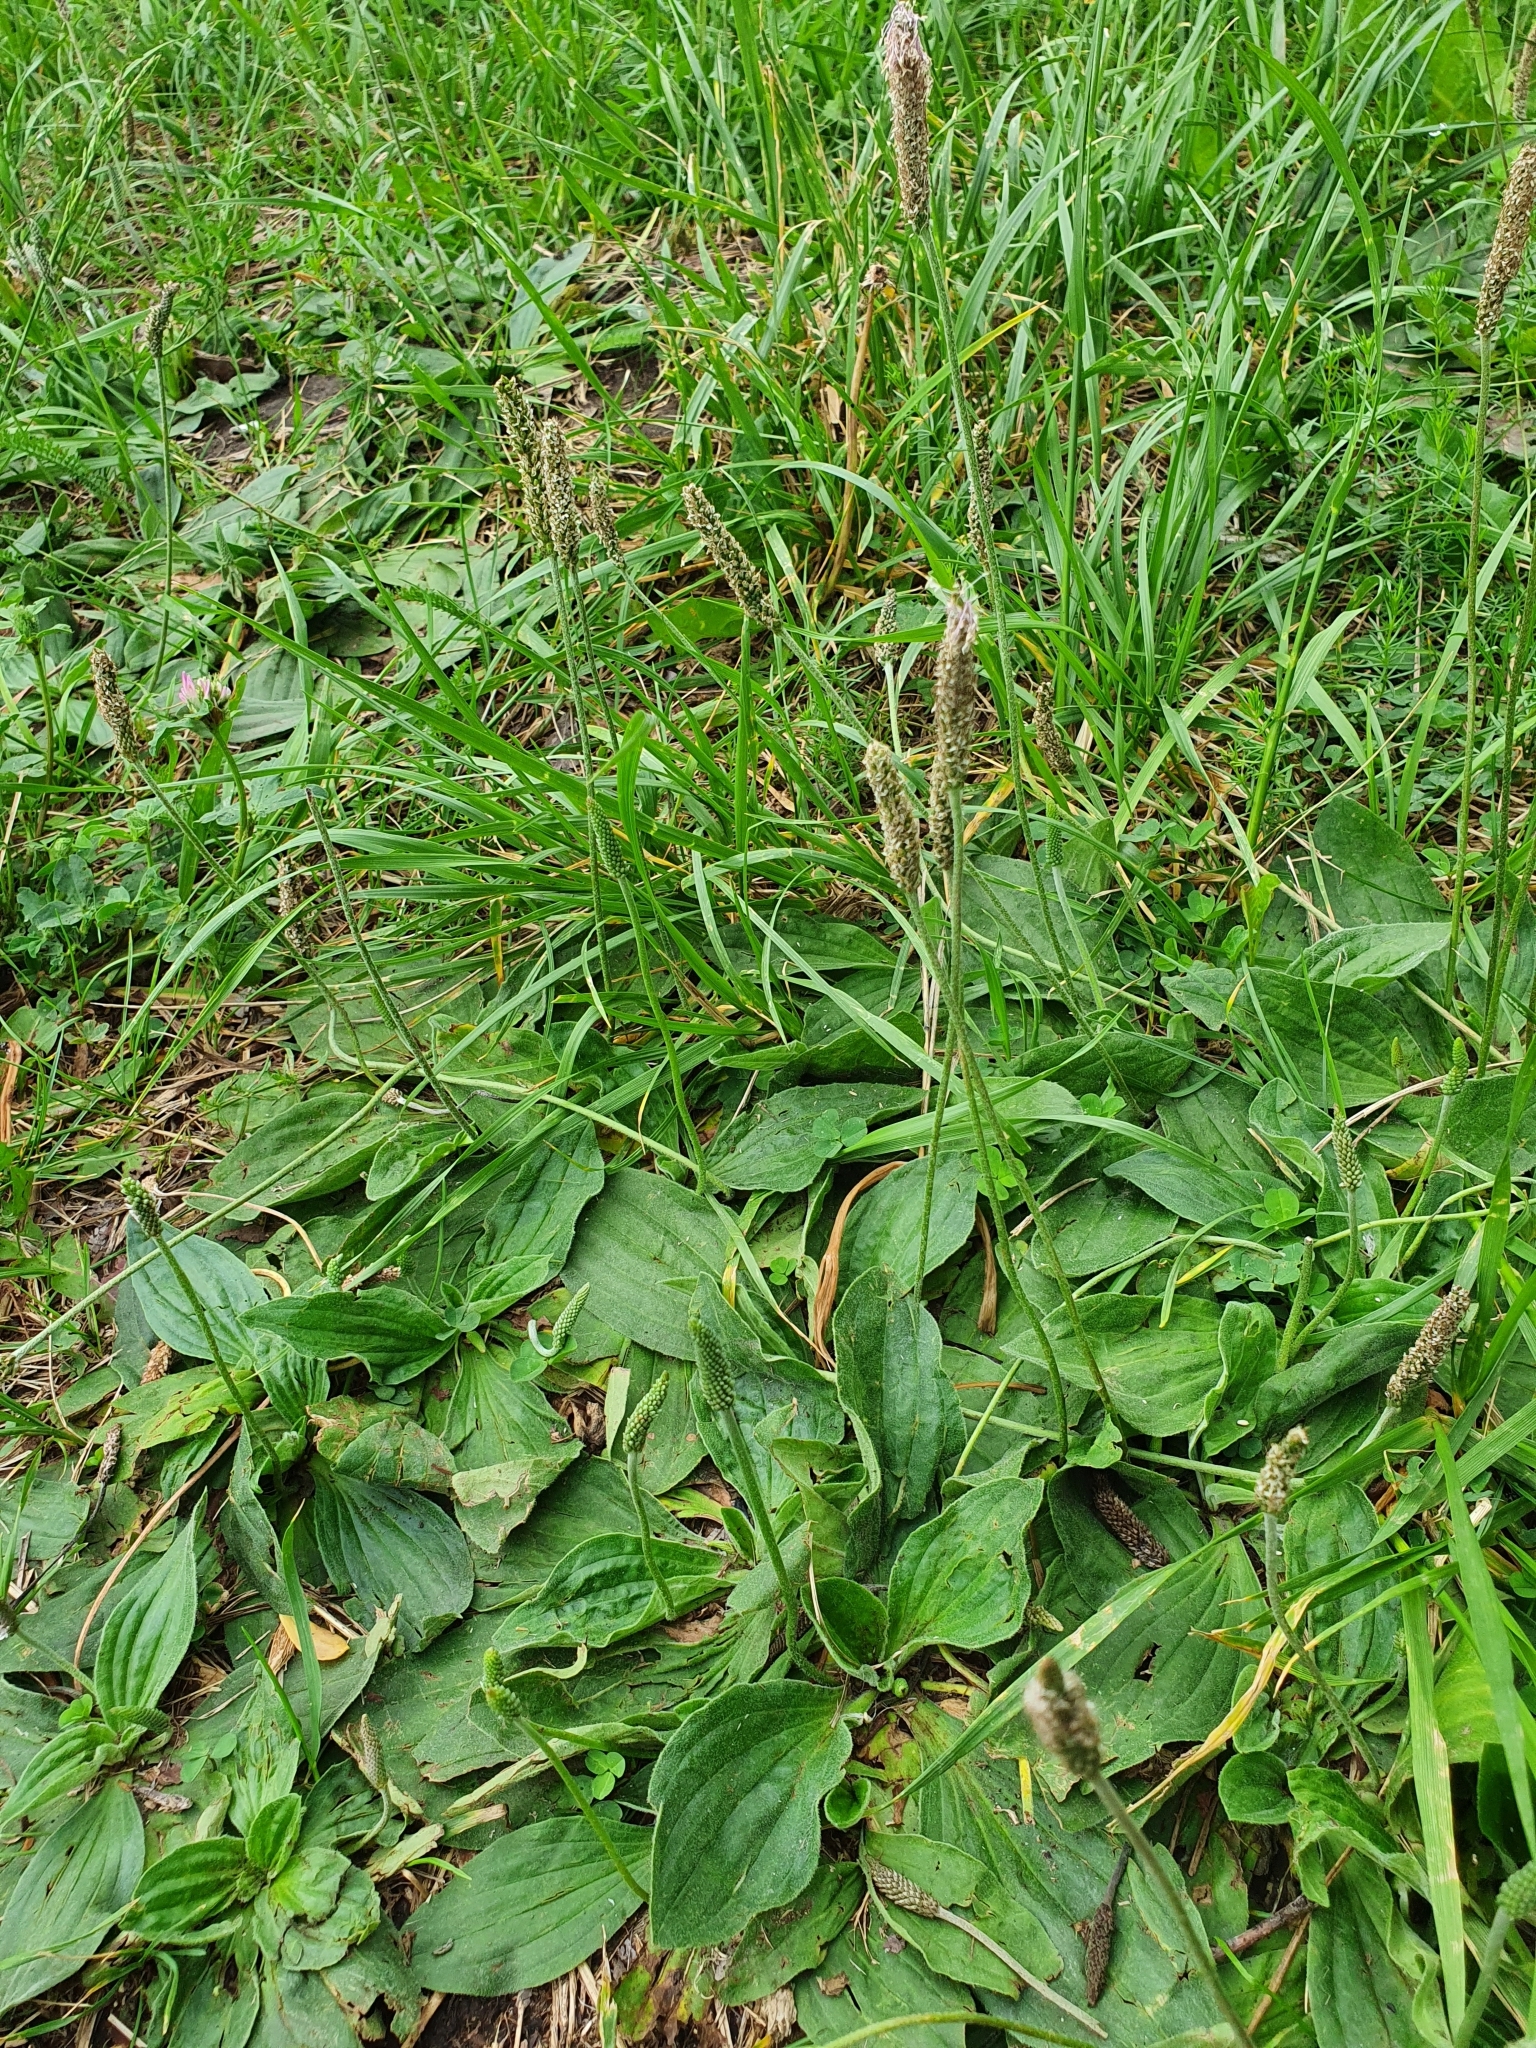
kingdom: Plantae
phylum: Tracheophyta
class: Magnoliopsida
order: Lamiales
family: Plantaginaceae
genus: Plantago
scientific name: Plantago media
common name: Hoary plantain
